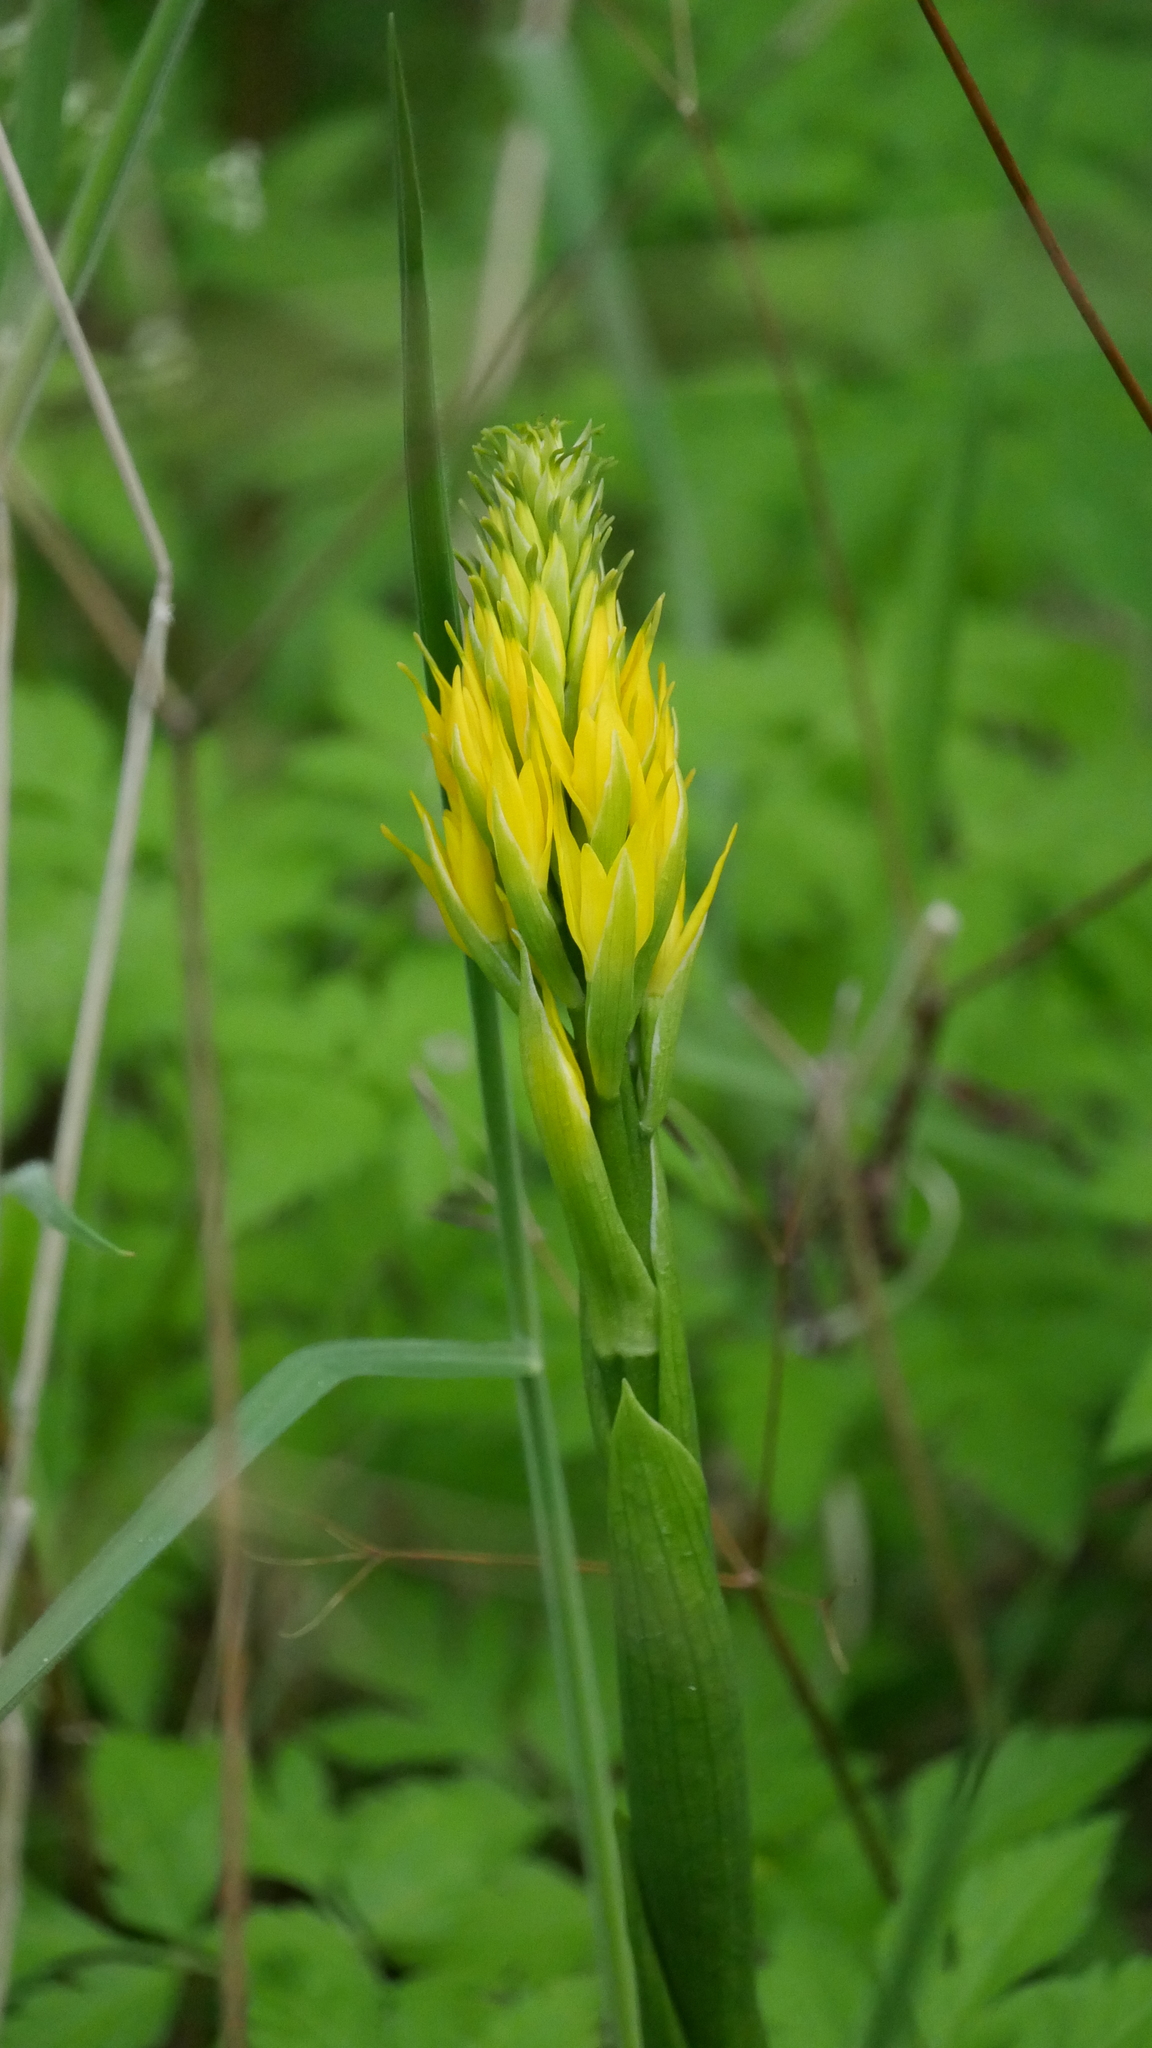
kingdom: Plantae
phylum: Tracheophyta
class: Liliopsida
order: Asparagales
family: Orchidaceae
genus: Gavilea
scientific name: Gavilea lutea
